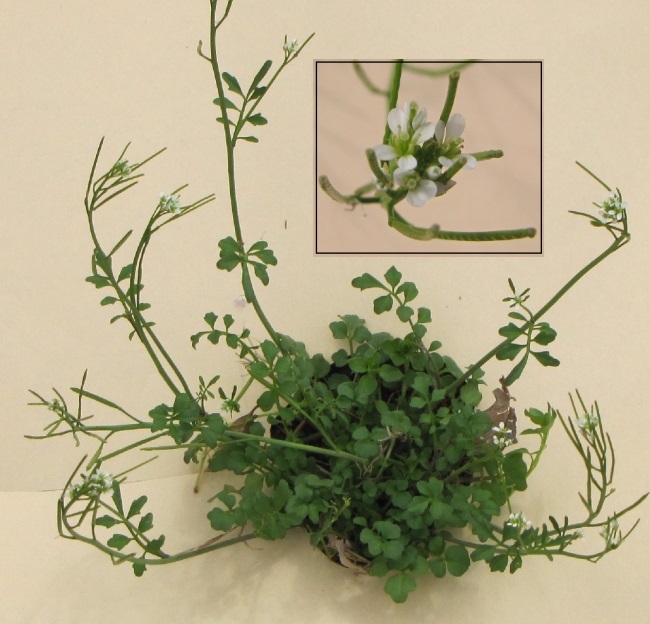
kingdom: Plantae
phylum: Tracheophyta
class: Magnoliopsida
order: Brassicales
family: Brassicaceae
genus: Cardamine
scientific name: Cardamine hirsuta
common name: Hairy bittercress
